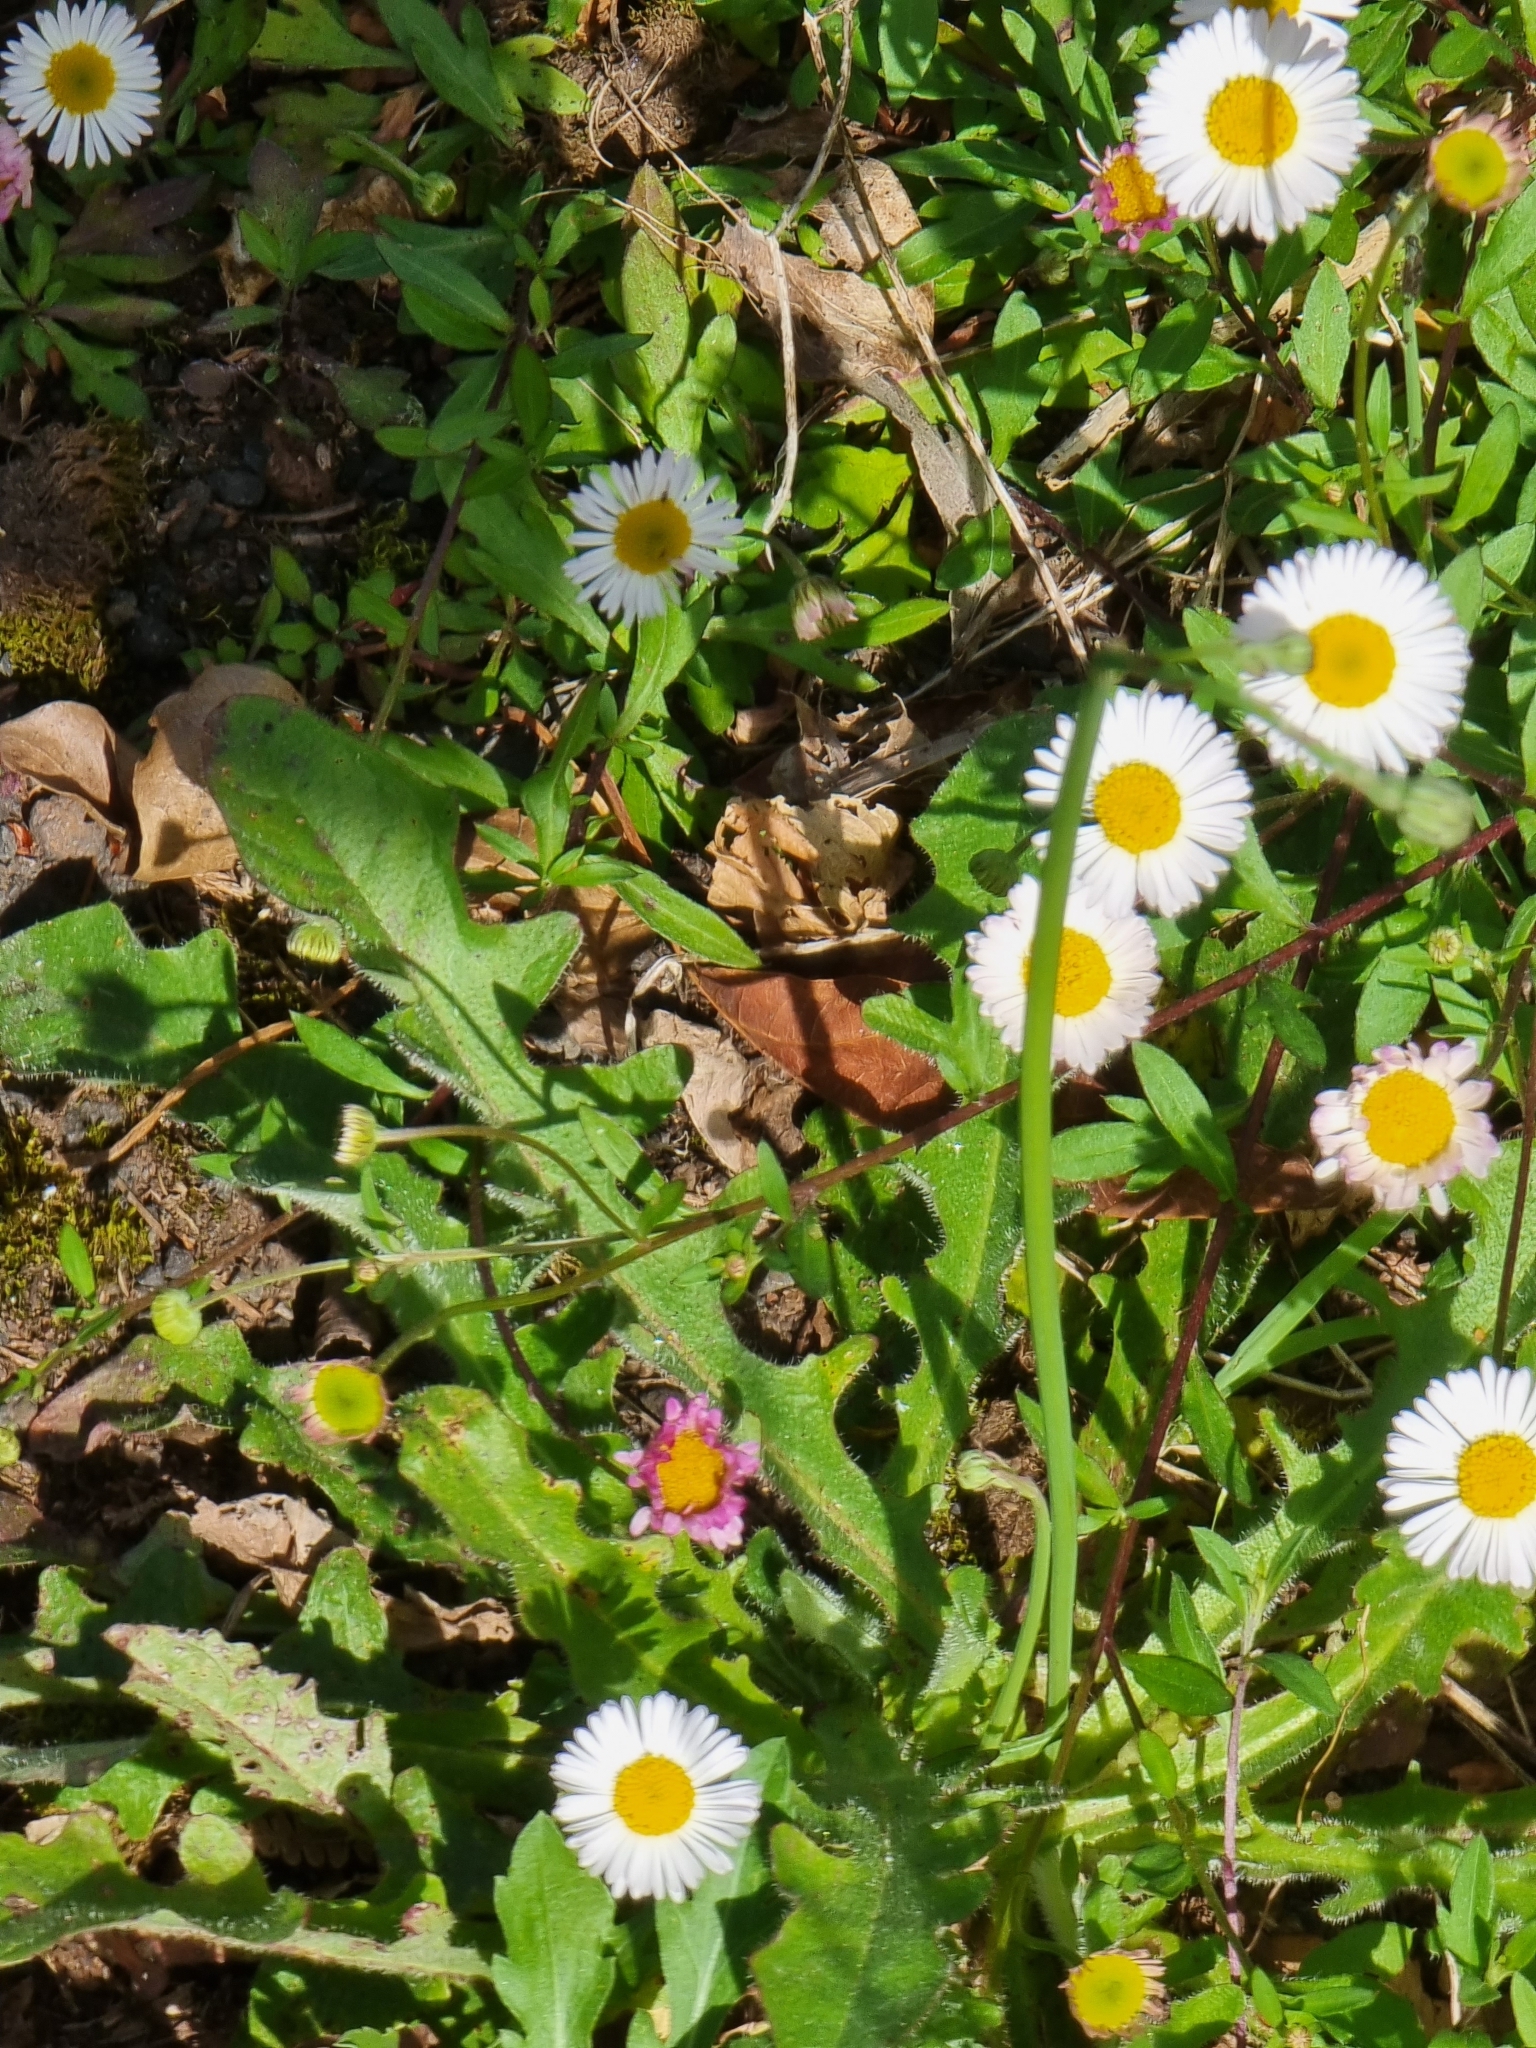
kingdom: Plantae
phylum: Tracheophyta
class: Magnoliopsida
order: Asterales
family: Asteraceae
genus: Bellis
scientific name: Bellis perennis
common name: Lawndaisy
